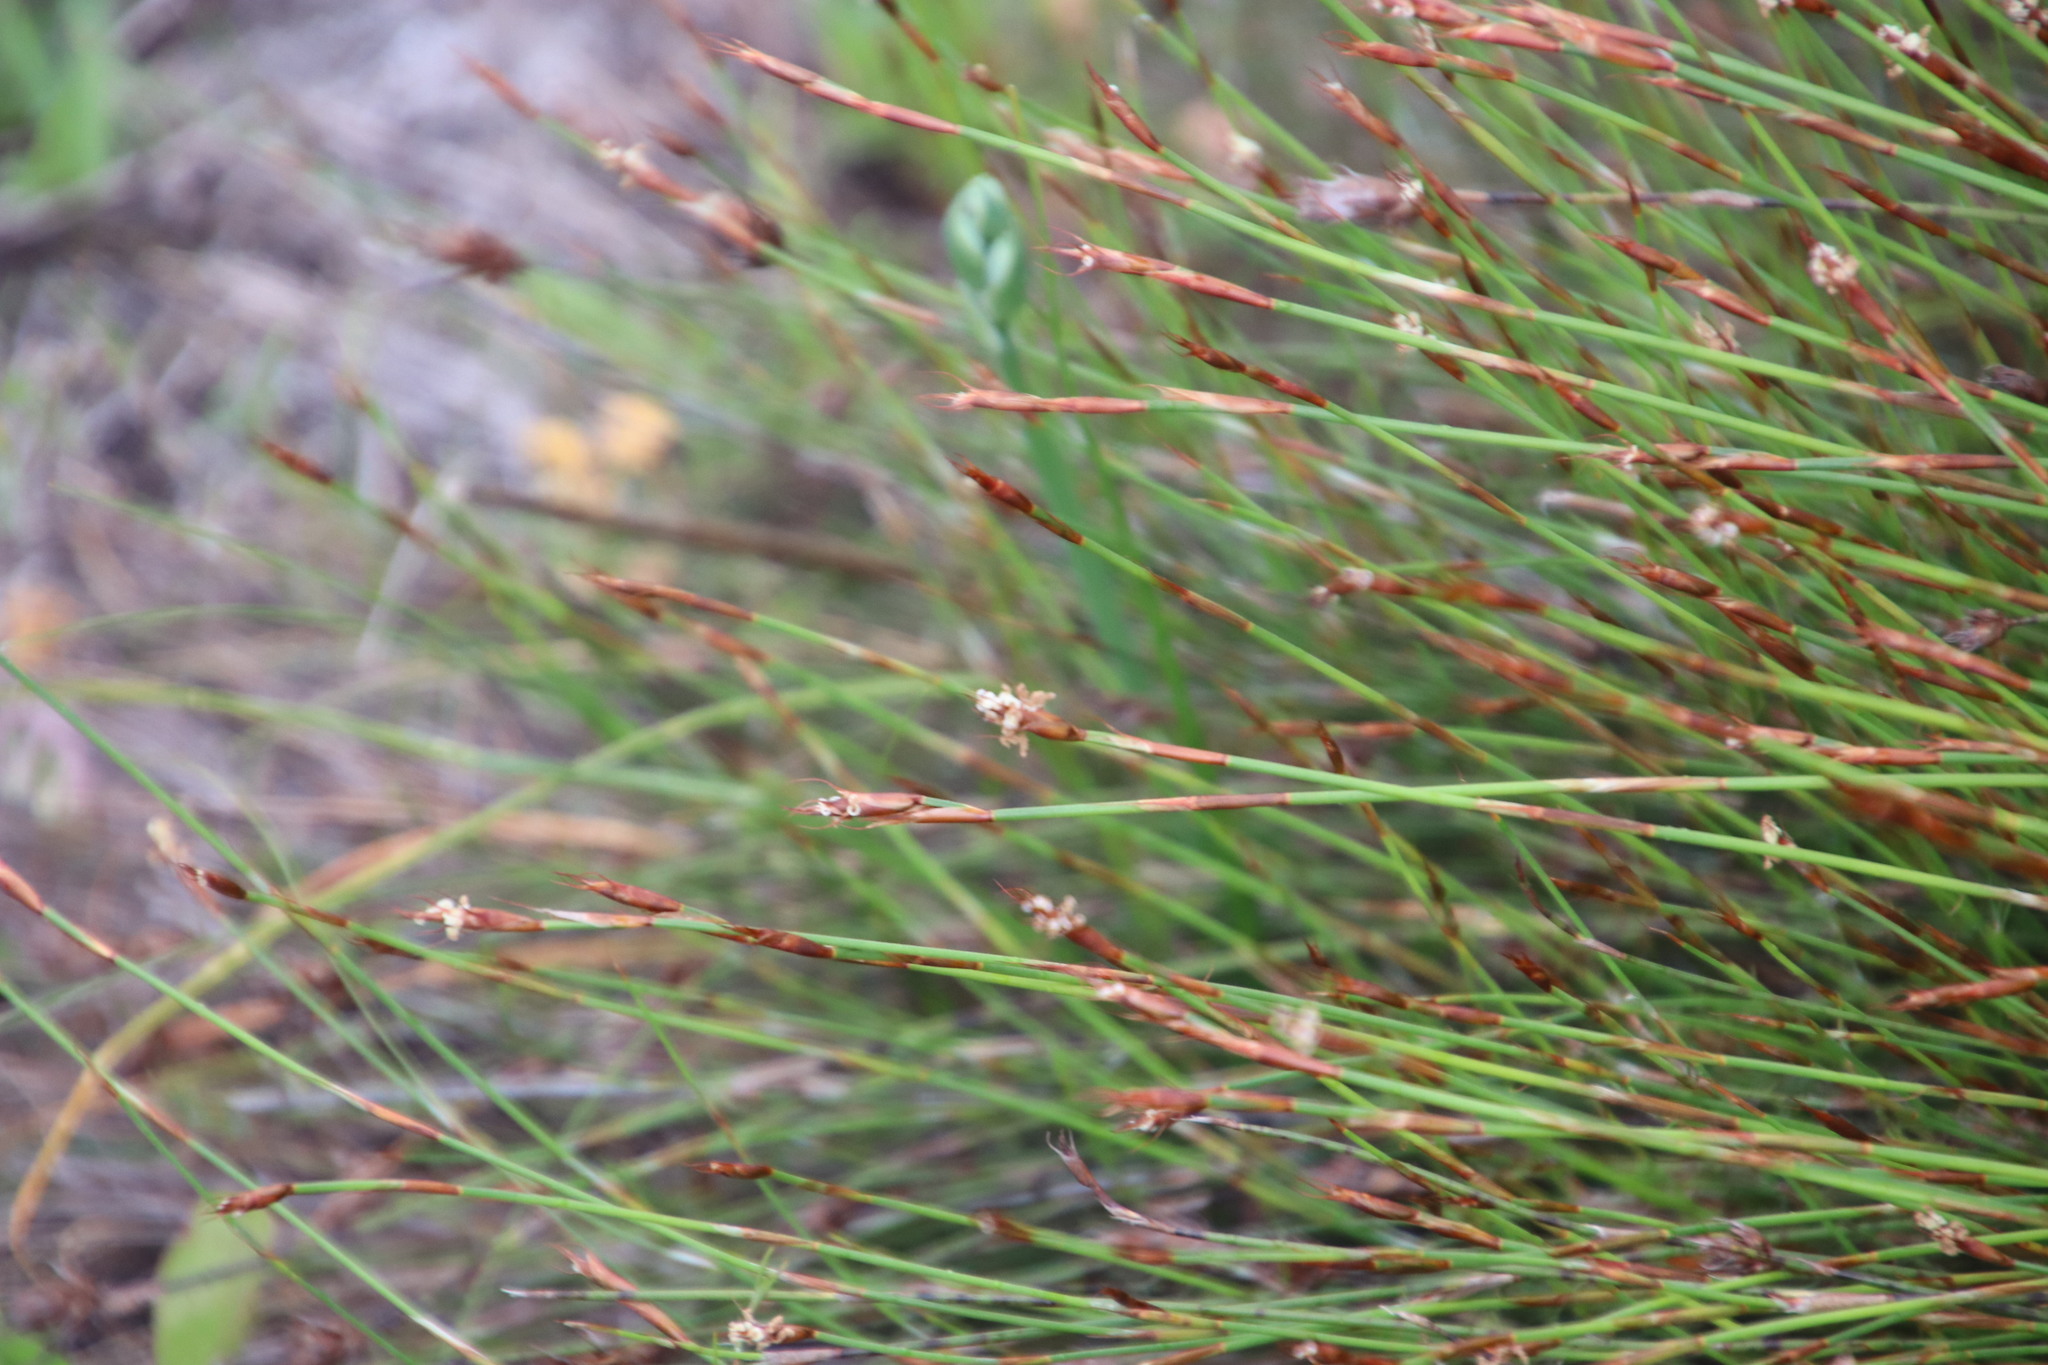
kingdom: Plantae
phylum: Tracheophyta
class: Liliopsida
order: Poales
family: Restionaceae
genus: Restio
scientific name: Restio capensis
